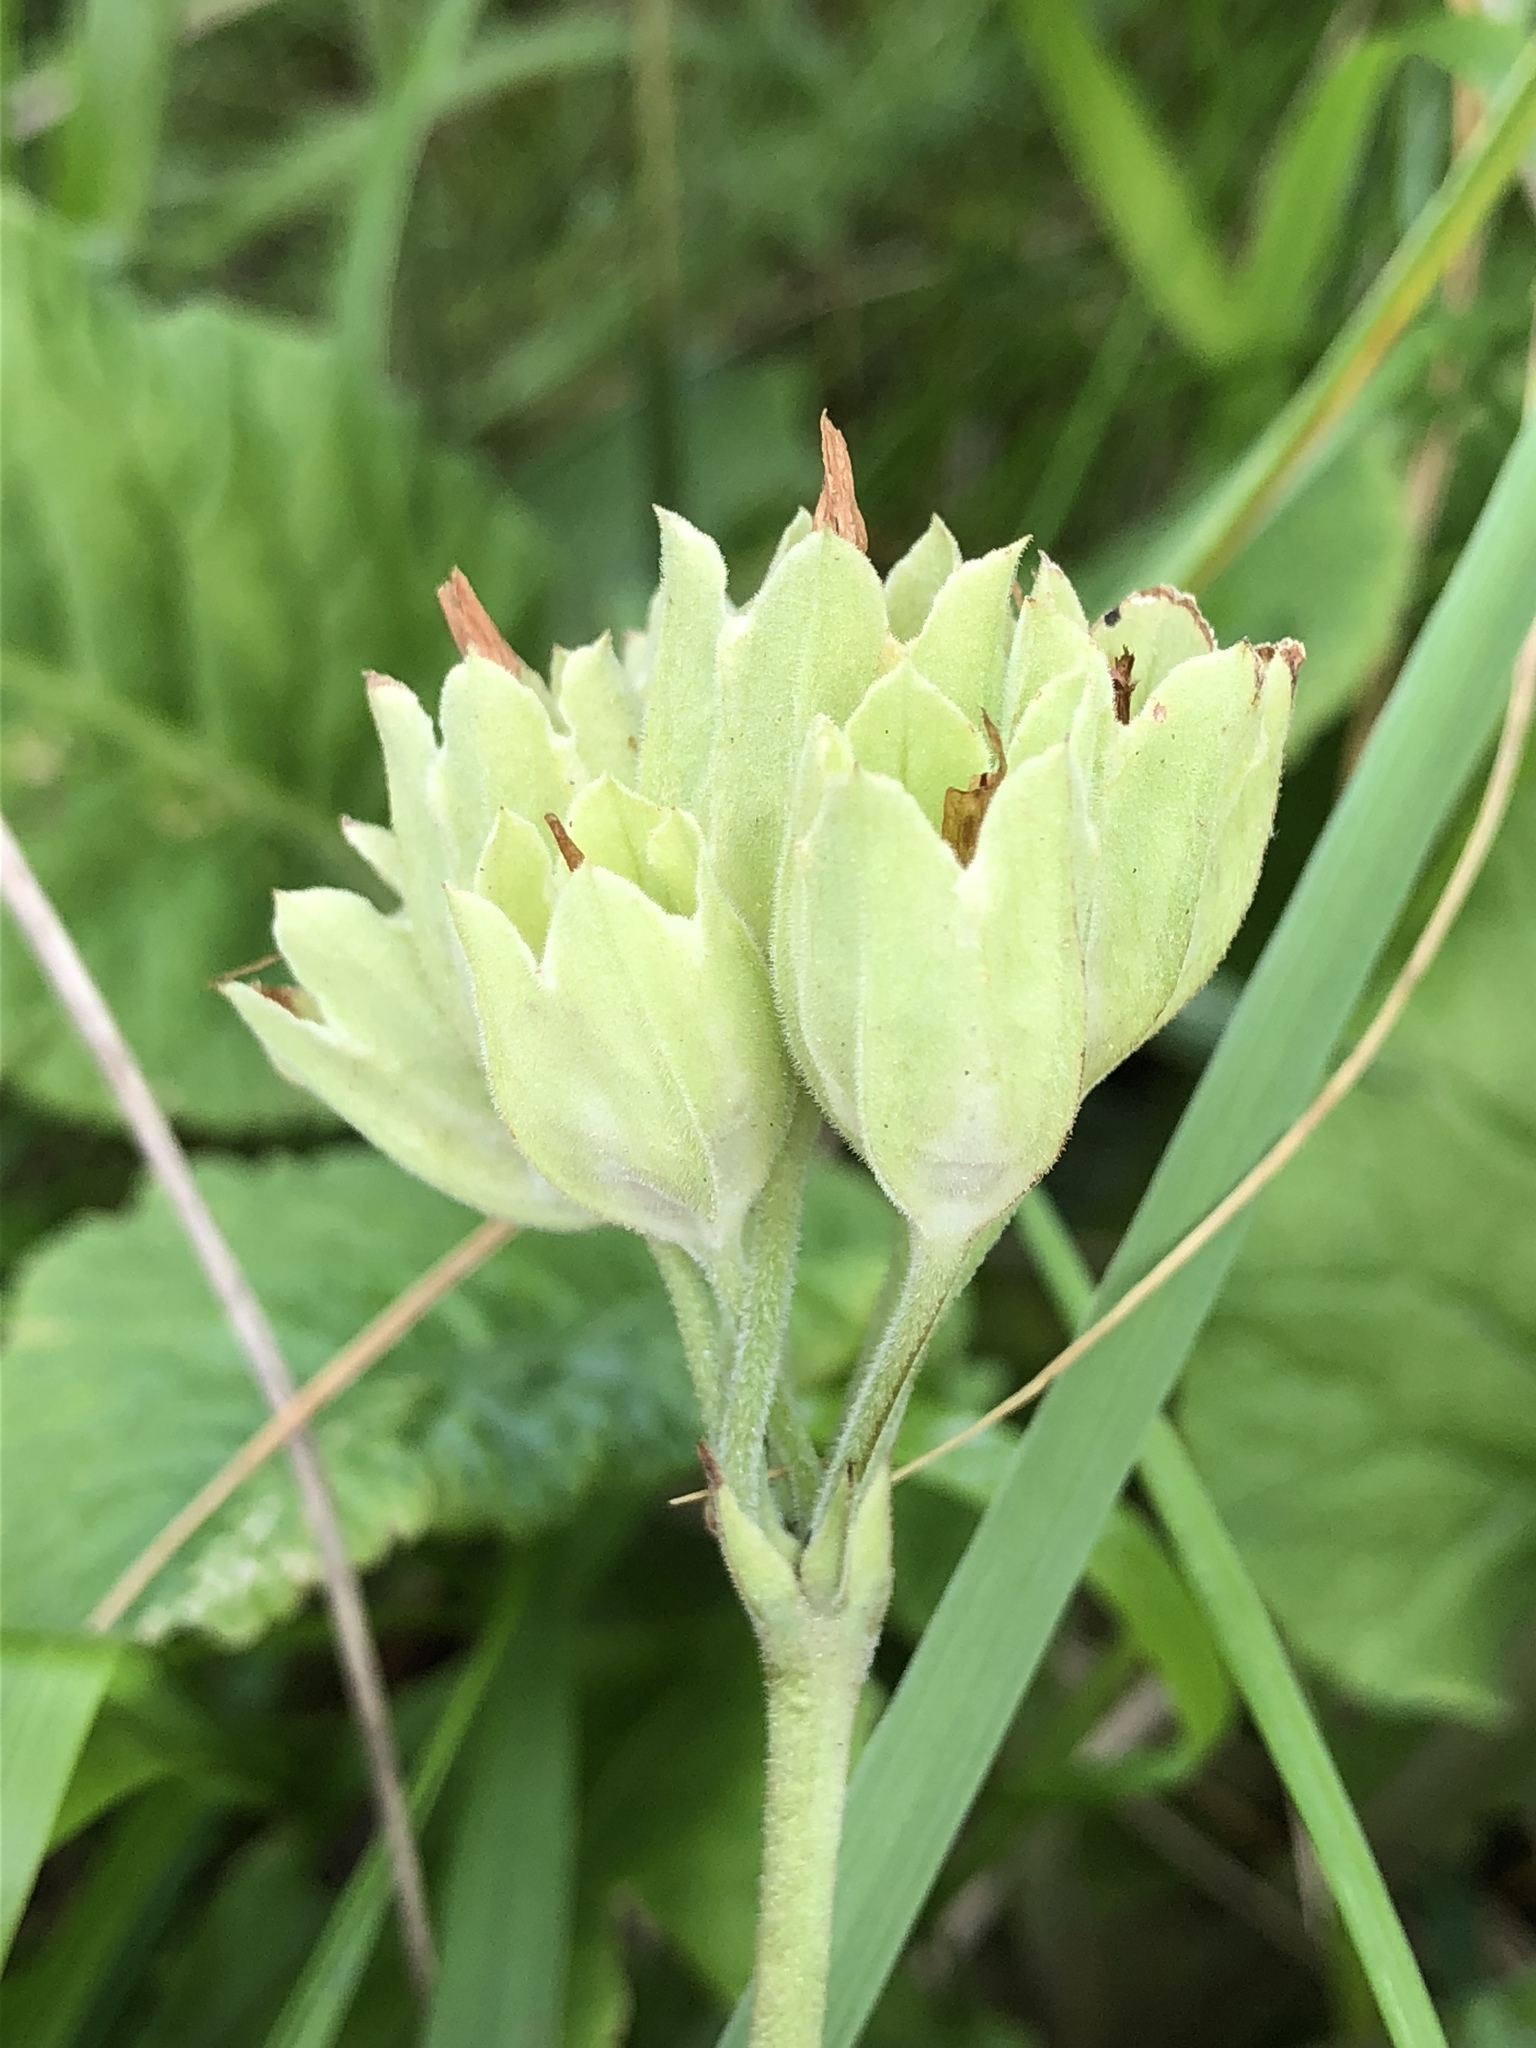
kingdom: Plantae
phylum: Tracheophyta
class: Magnoliopsida
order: Ericales
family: Primulaceae
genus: Primula
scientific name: Primula veris
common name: Cowslip
